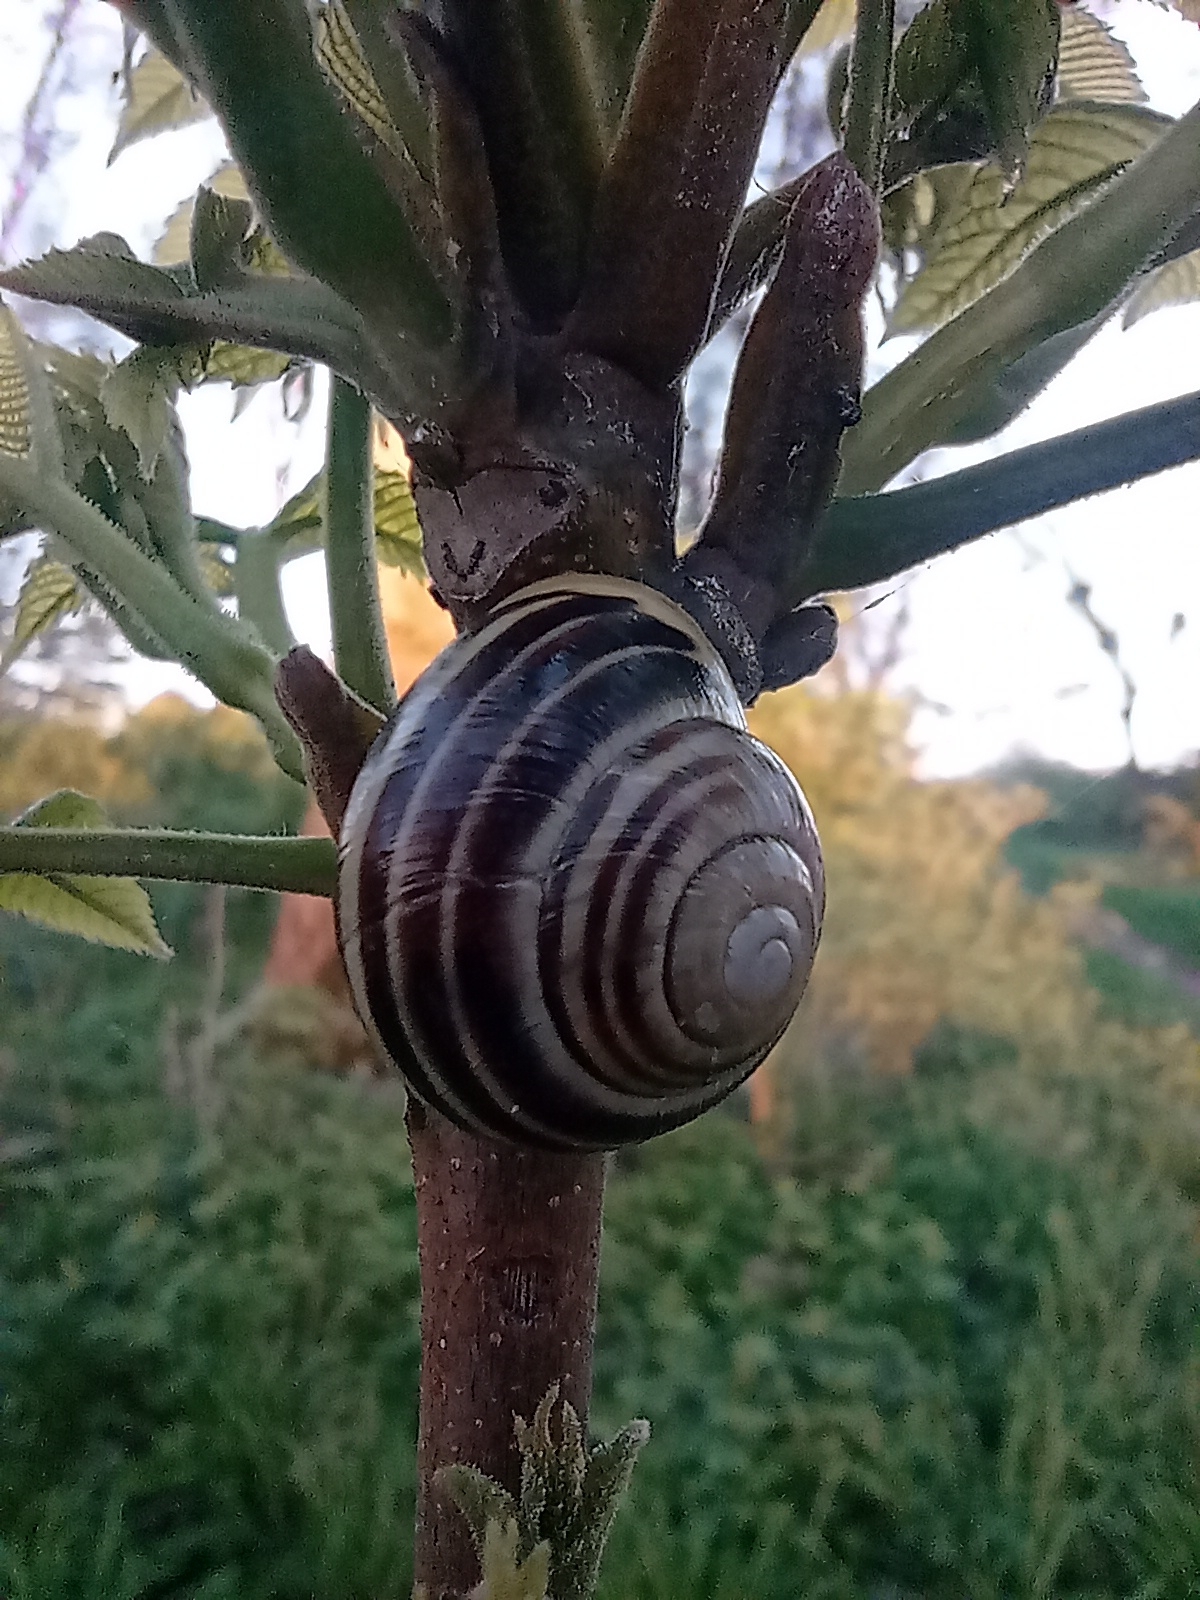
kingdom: Animalia
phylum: Mollusca
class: Gastropoda
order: Stylommatophora
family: Helicidae
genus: Cepaea
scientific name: Cepaea hortensis
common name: White-lip gardensnail
